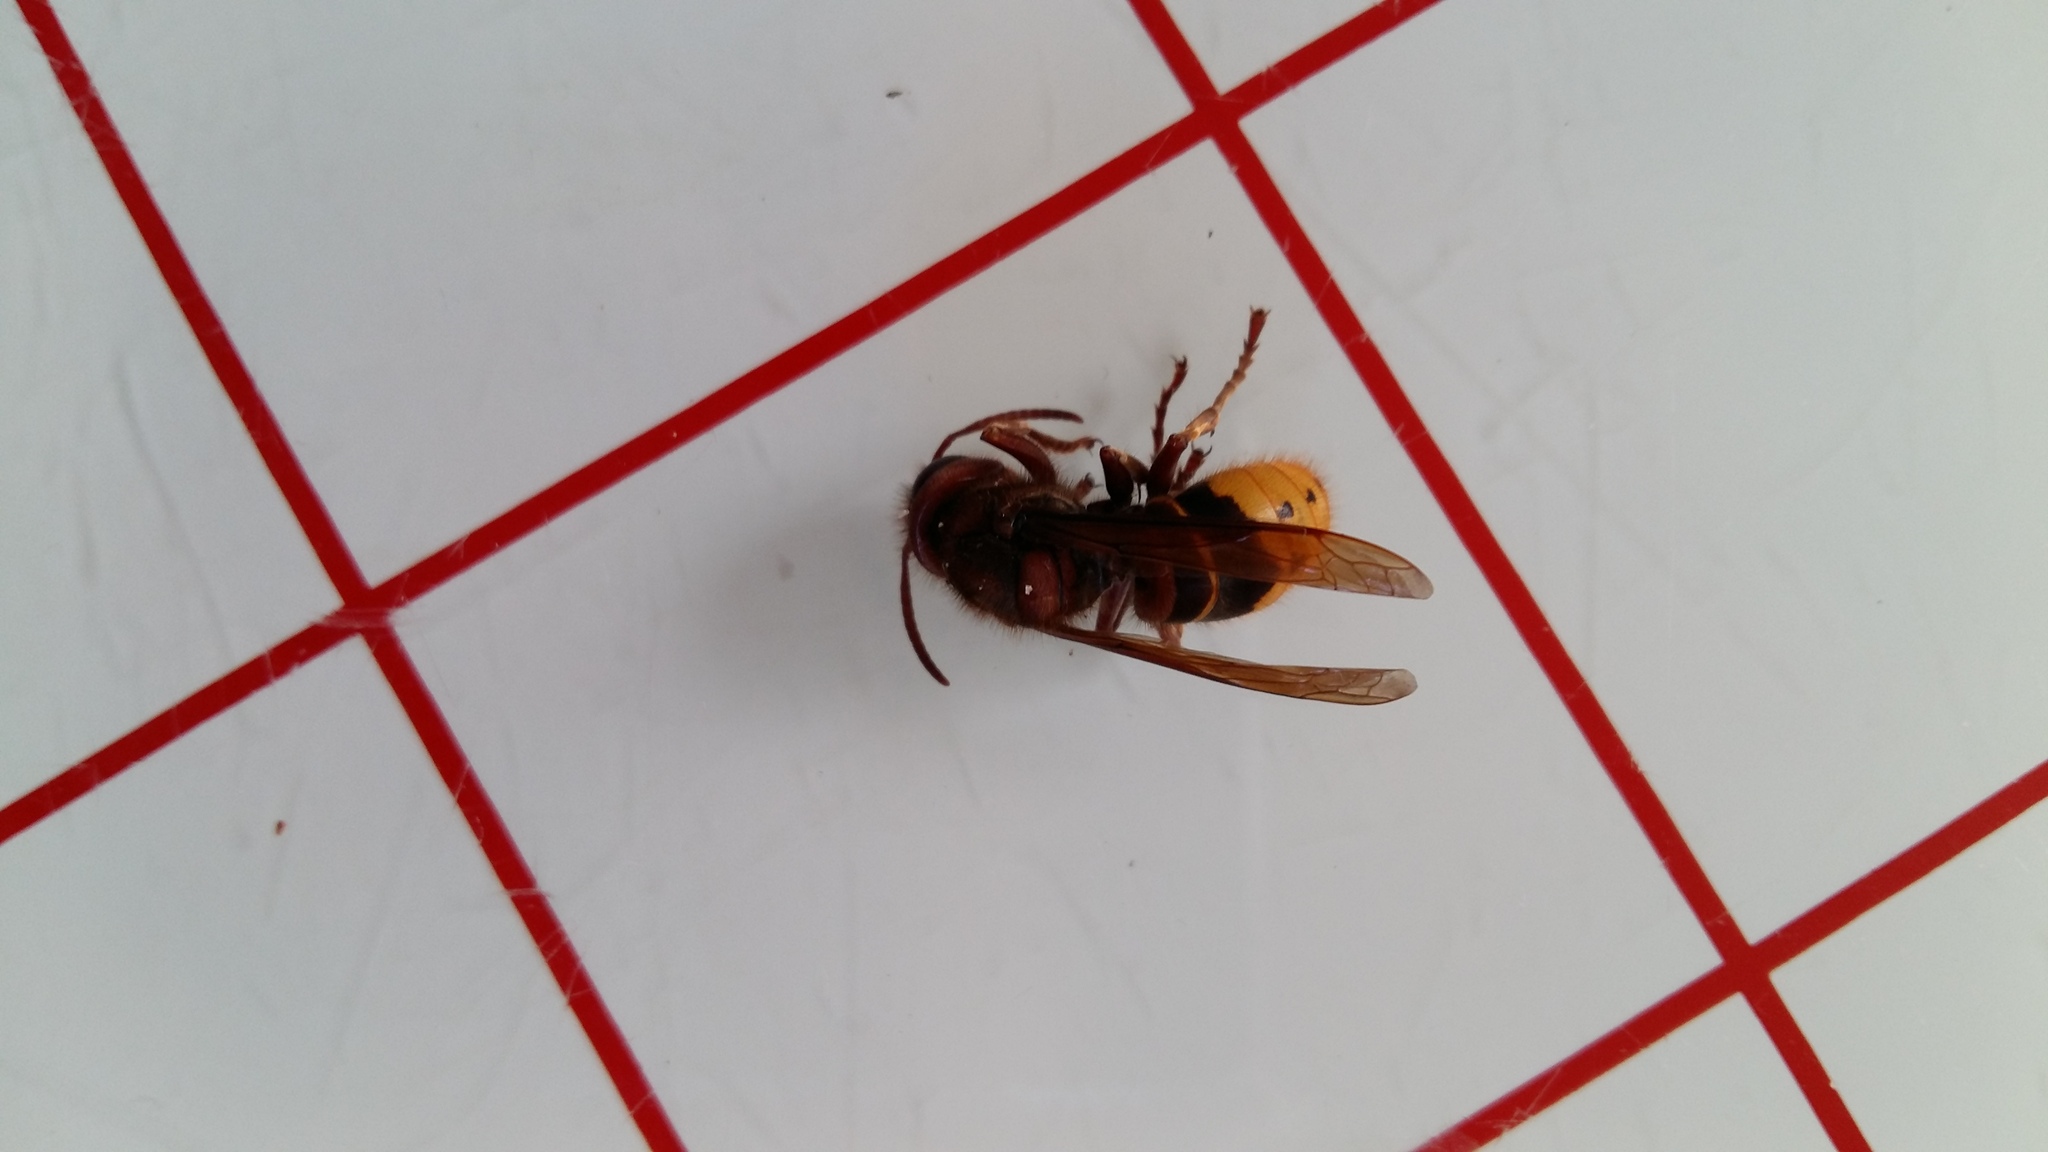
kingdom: Animalia
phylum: Arthropoda
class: Insecta
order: Hymenoptera
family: Vespidae
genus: Vespa
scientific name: Vespa crabro
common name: Hornet
